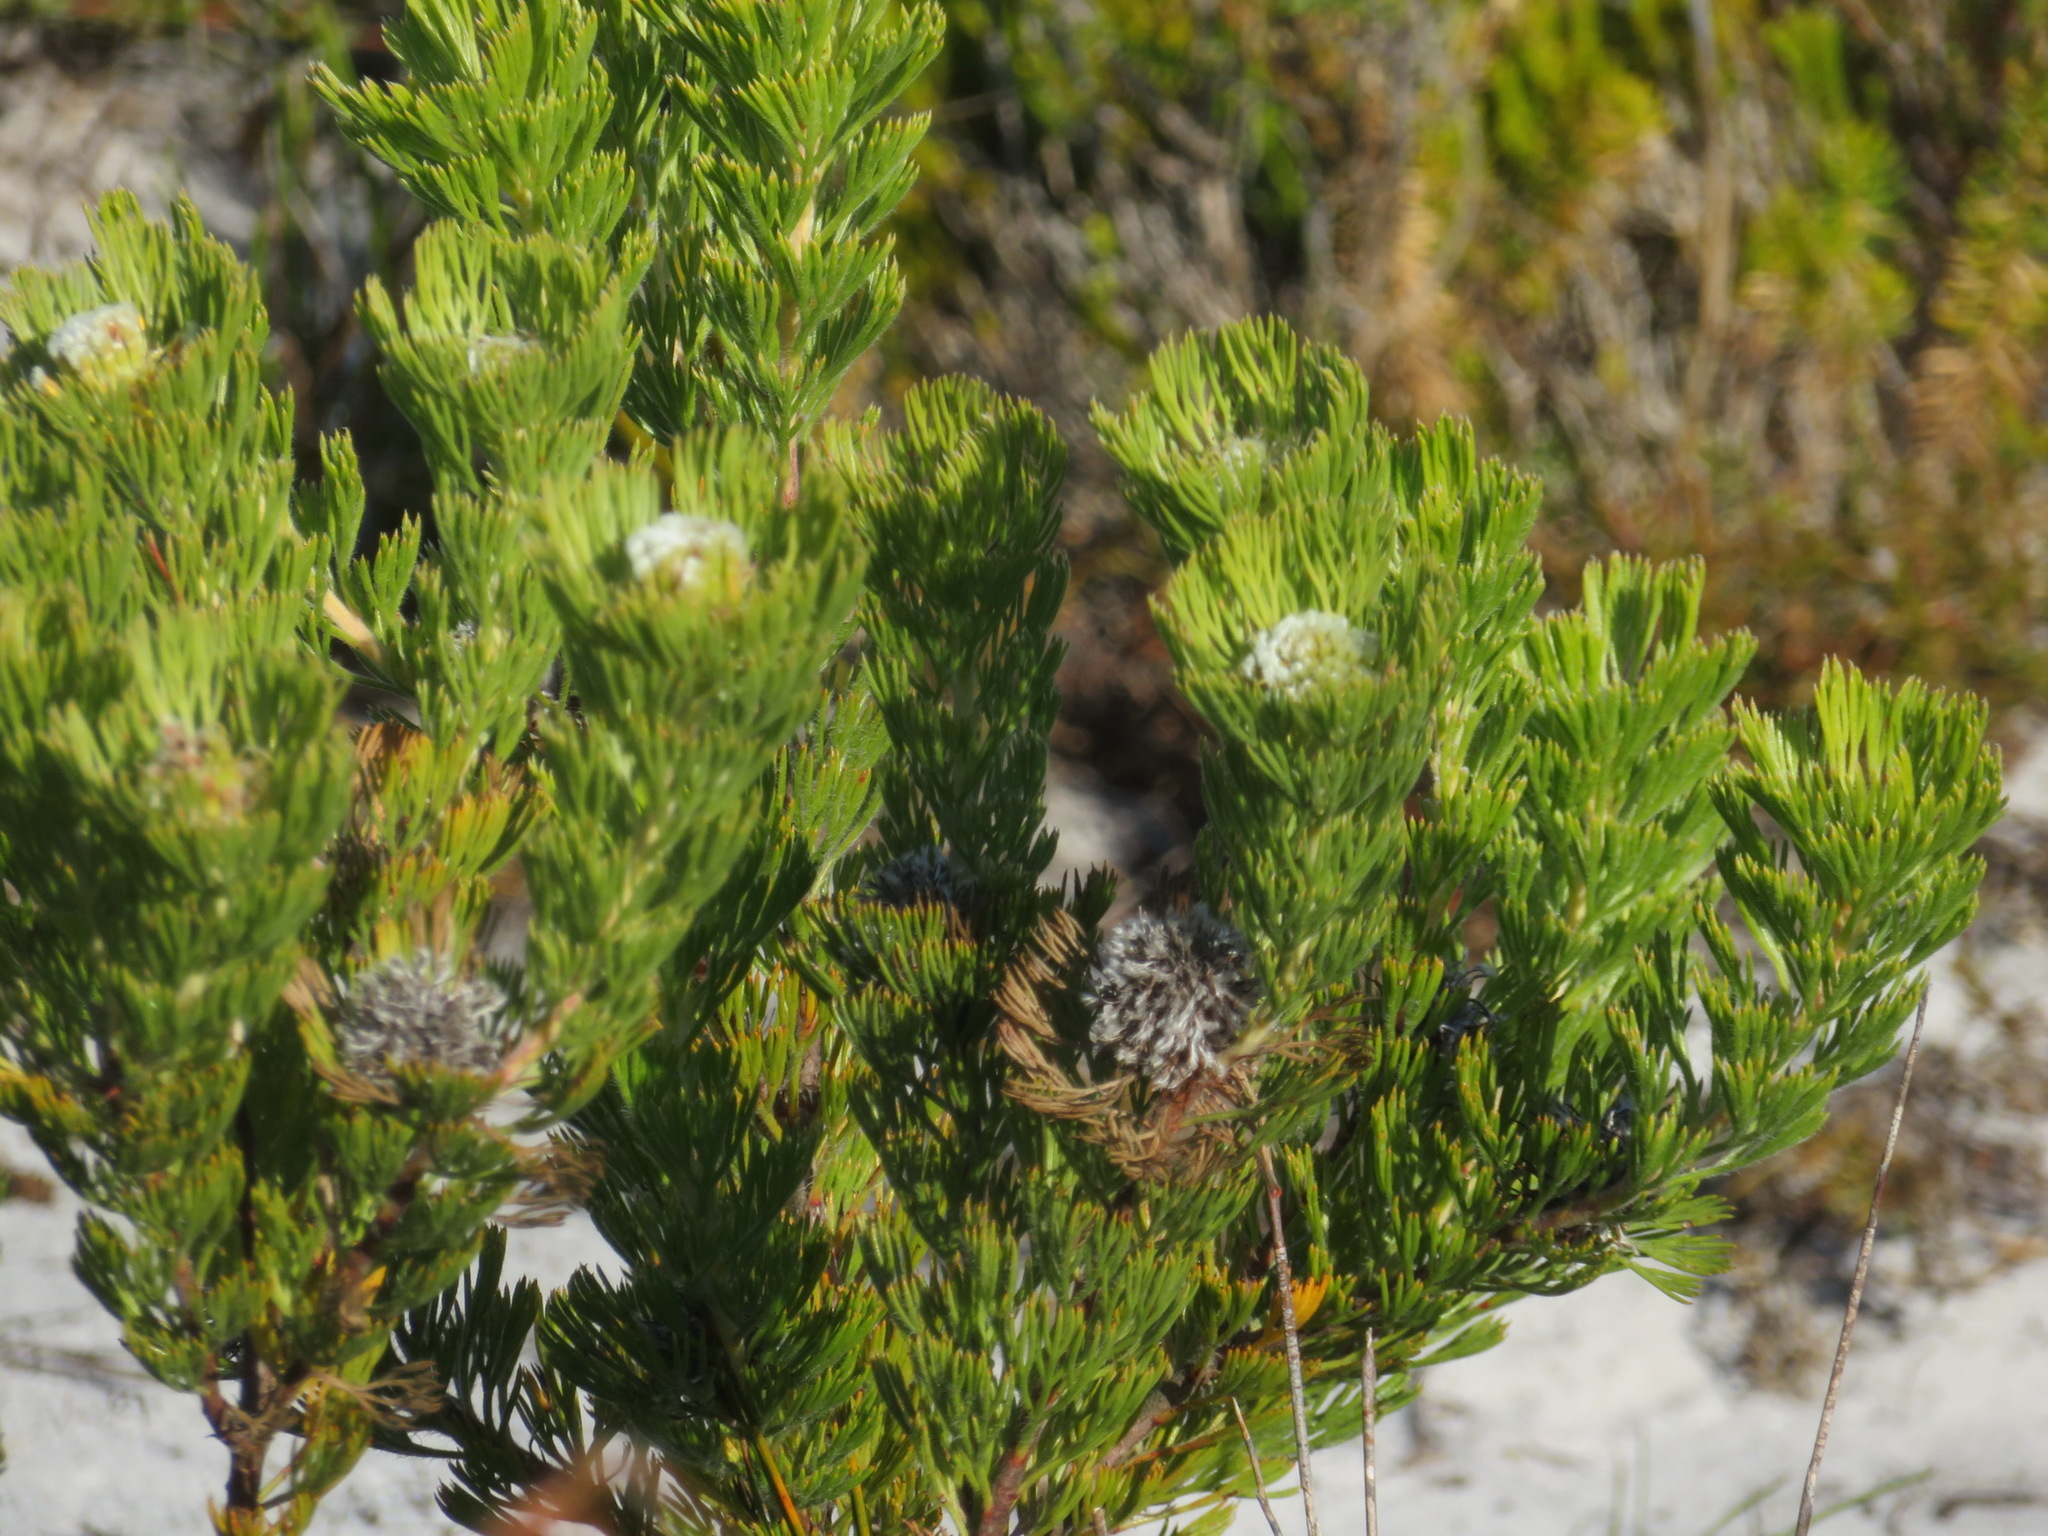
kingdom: Plantae
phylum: Tracheophyta
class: Magnoliopsida
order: Proteales
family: Proteaceae
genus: Serruria
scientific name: Serruria villosa
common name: Golden spiderhead
